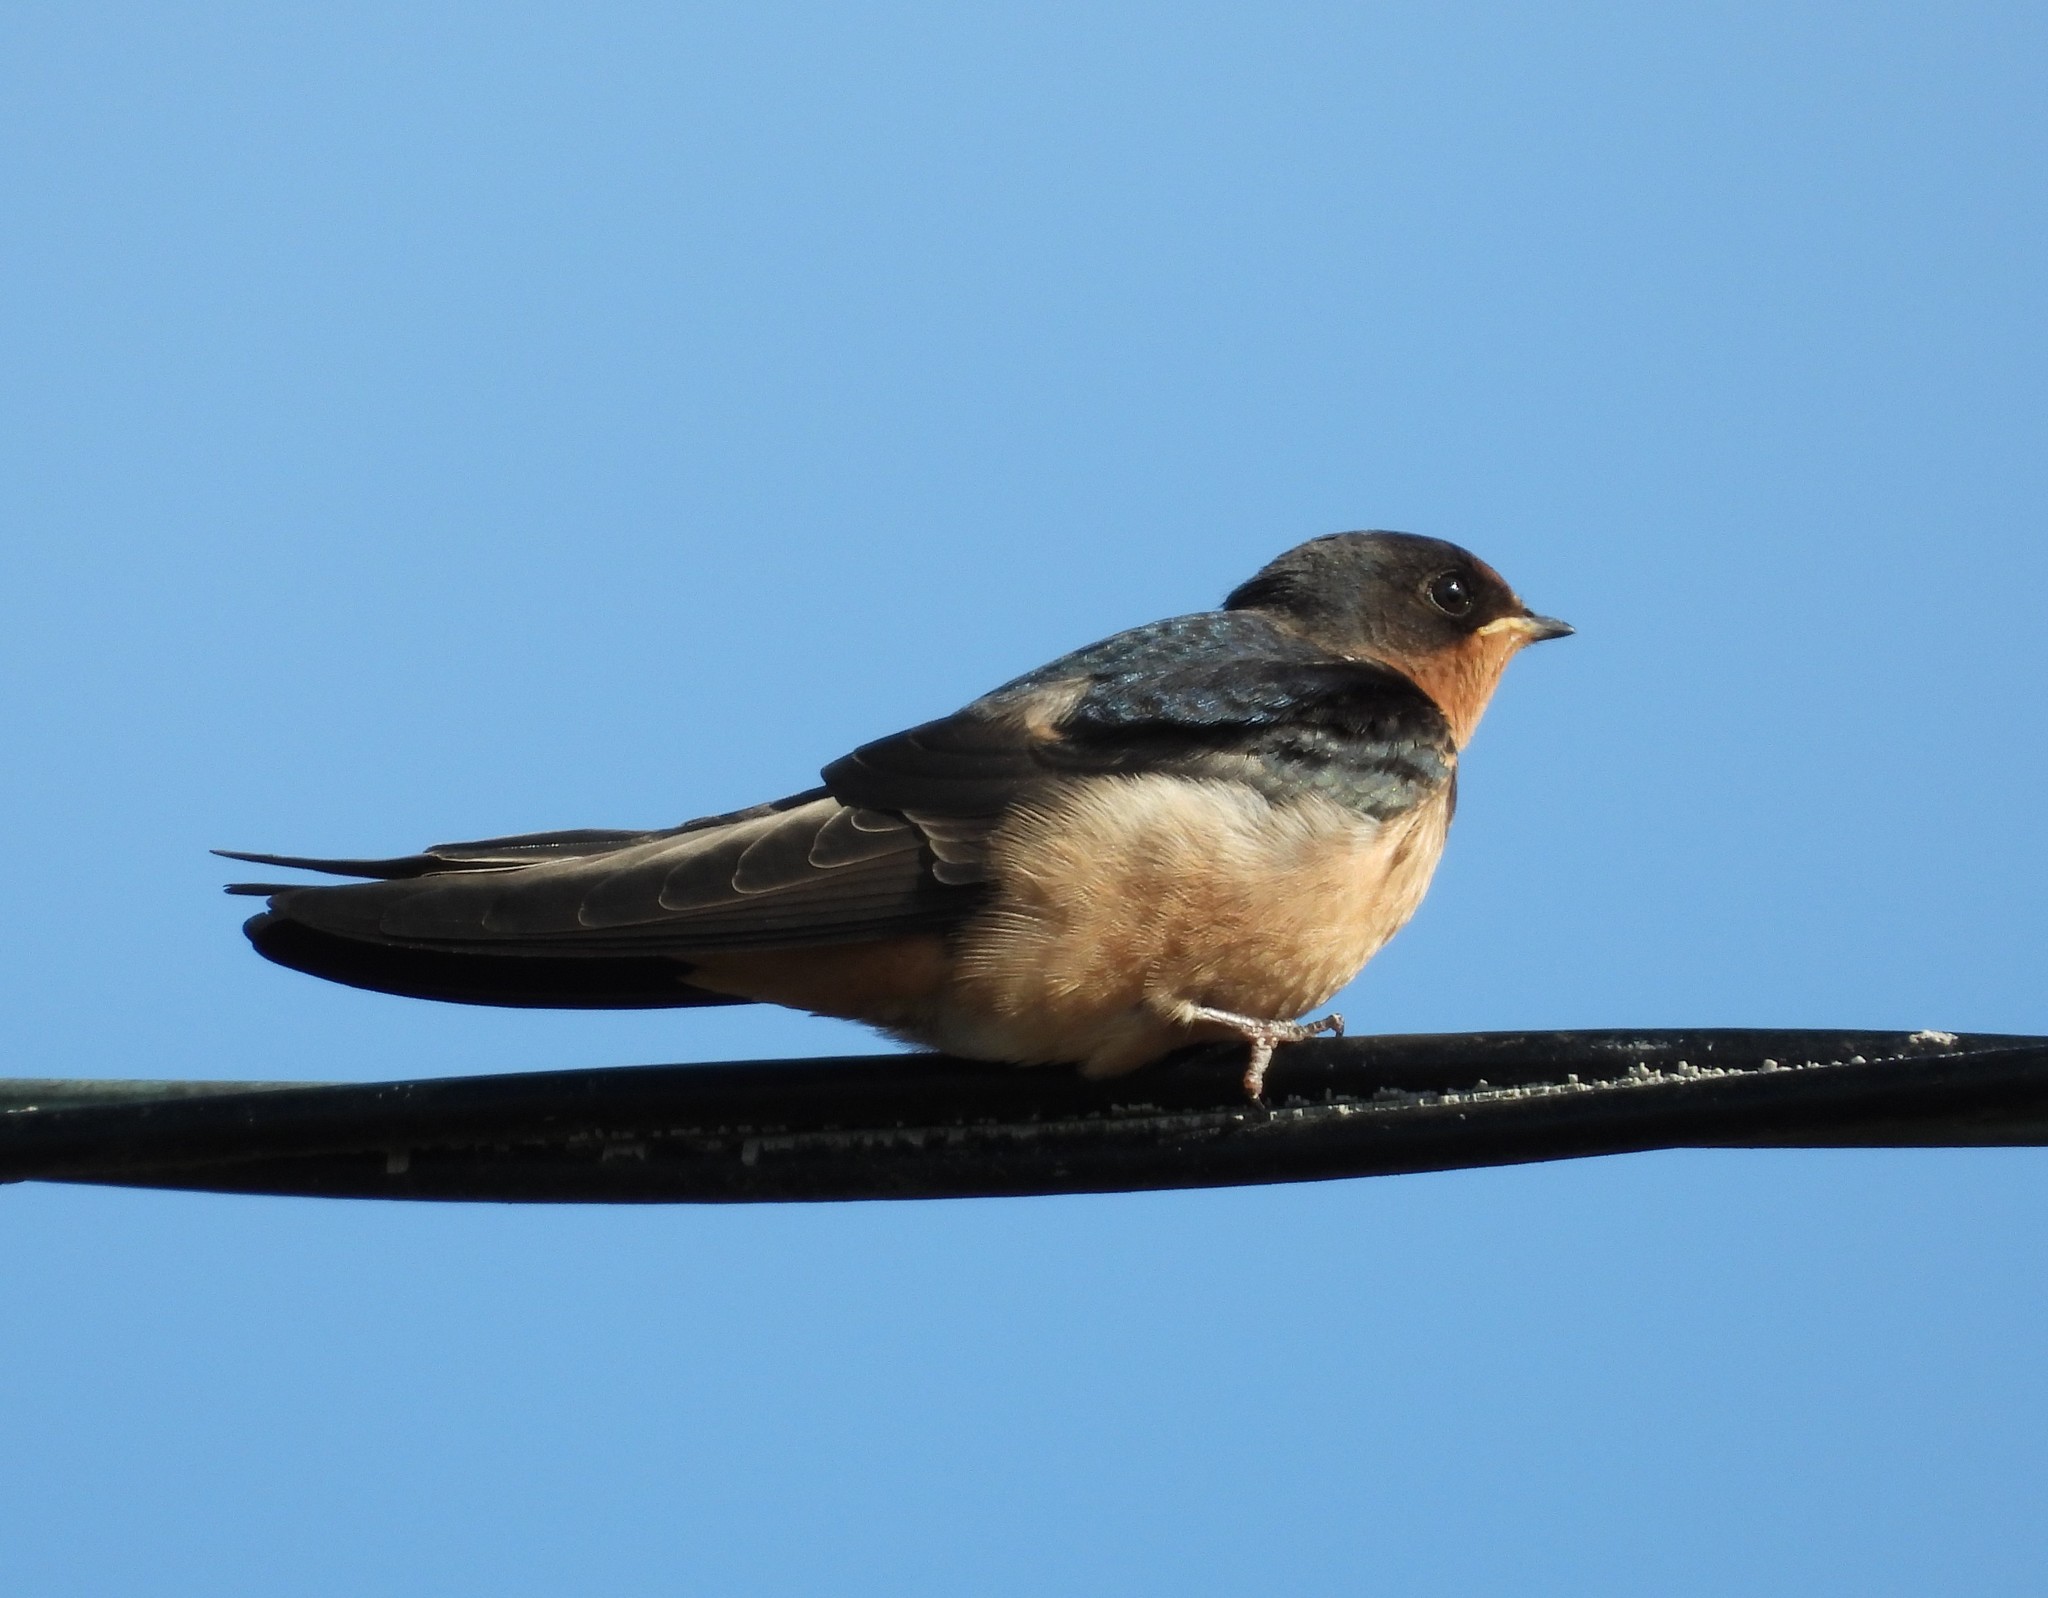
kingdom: Animalia
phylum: Chordata
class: Aves
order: Passeriformes
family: Hirundinidae
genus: Hirundo
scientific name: Hirundo rustica
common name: Barn swallow
